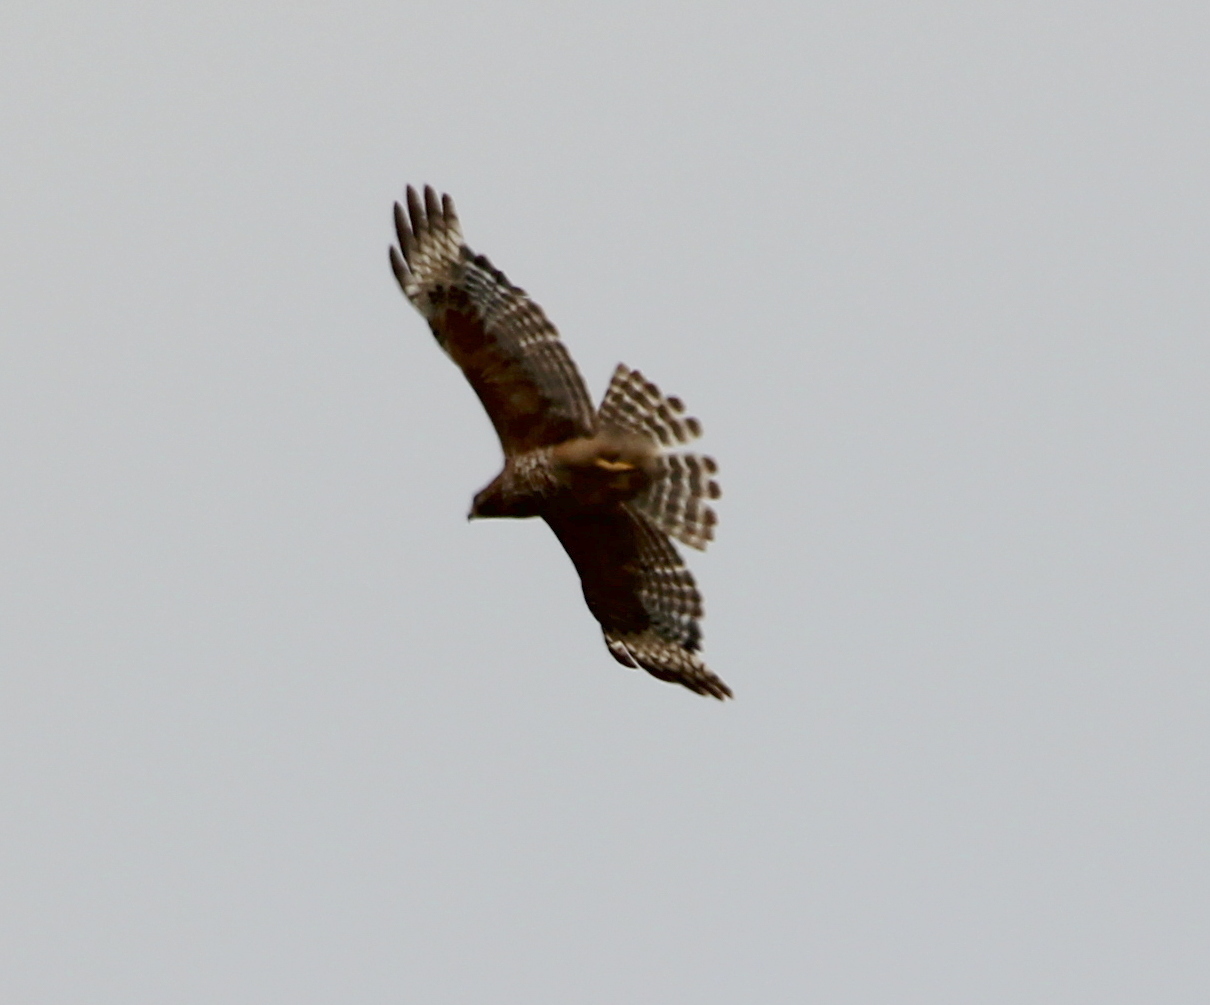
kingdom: Animalia
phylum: Chordata
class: Aves
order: Accipitriformes
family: Accipitridae
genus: Buteo
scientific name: Buteo lineatus
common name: Red-shouldered hawk
